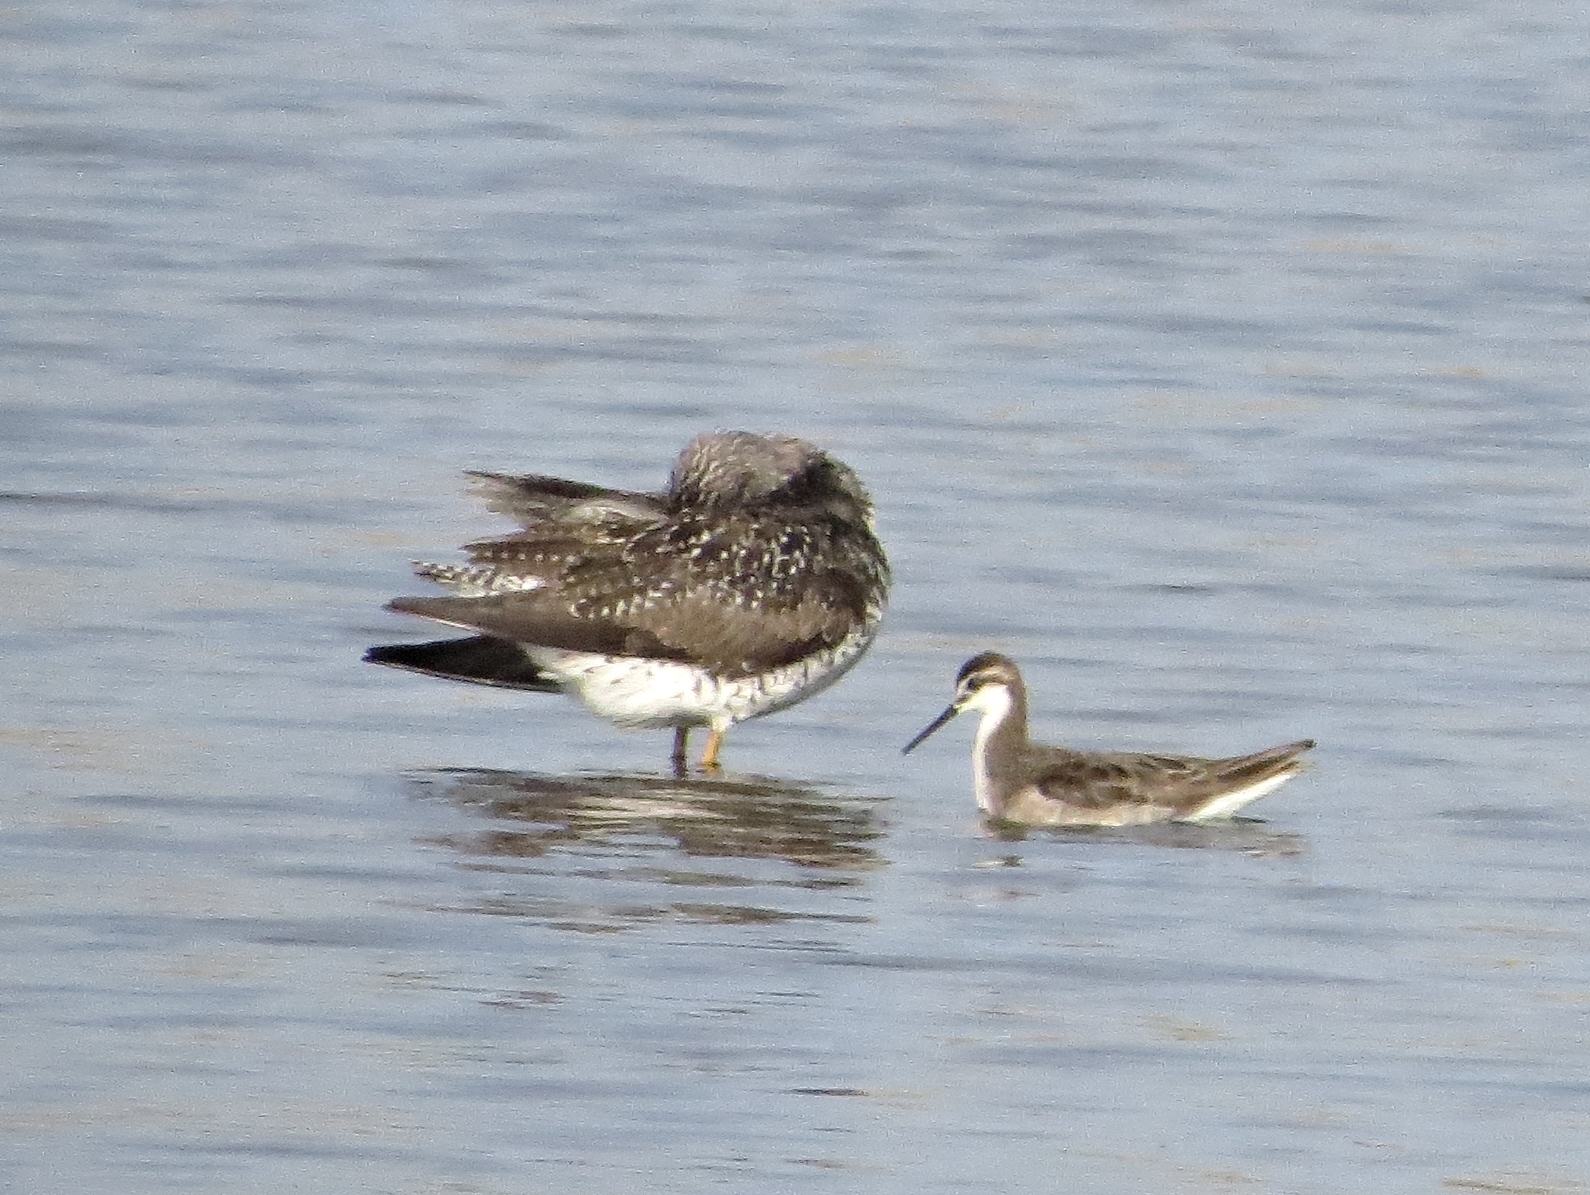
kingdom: Animalia
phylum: Chordata
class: Aves
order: Charadriiformes
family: Scolopacidae
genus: Phalaropus
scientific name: Phalaropus tricolor
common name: Wilson's phalarope
